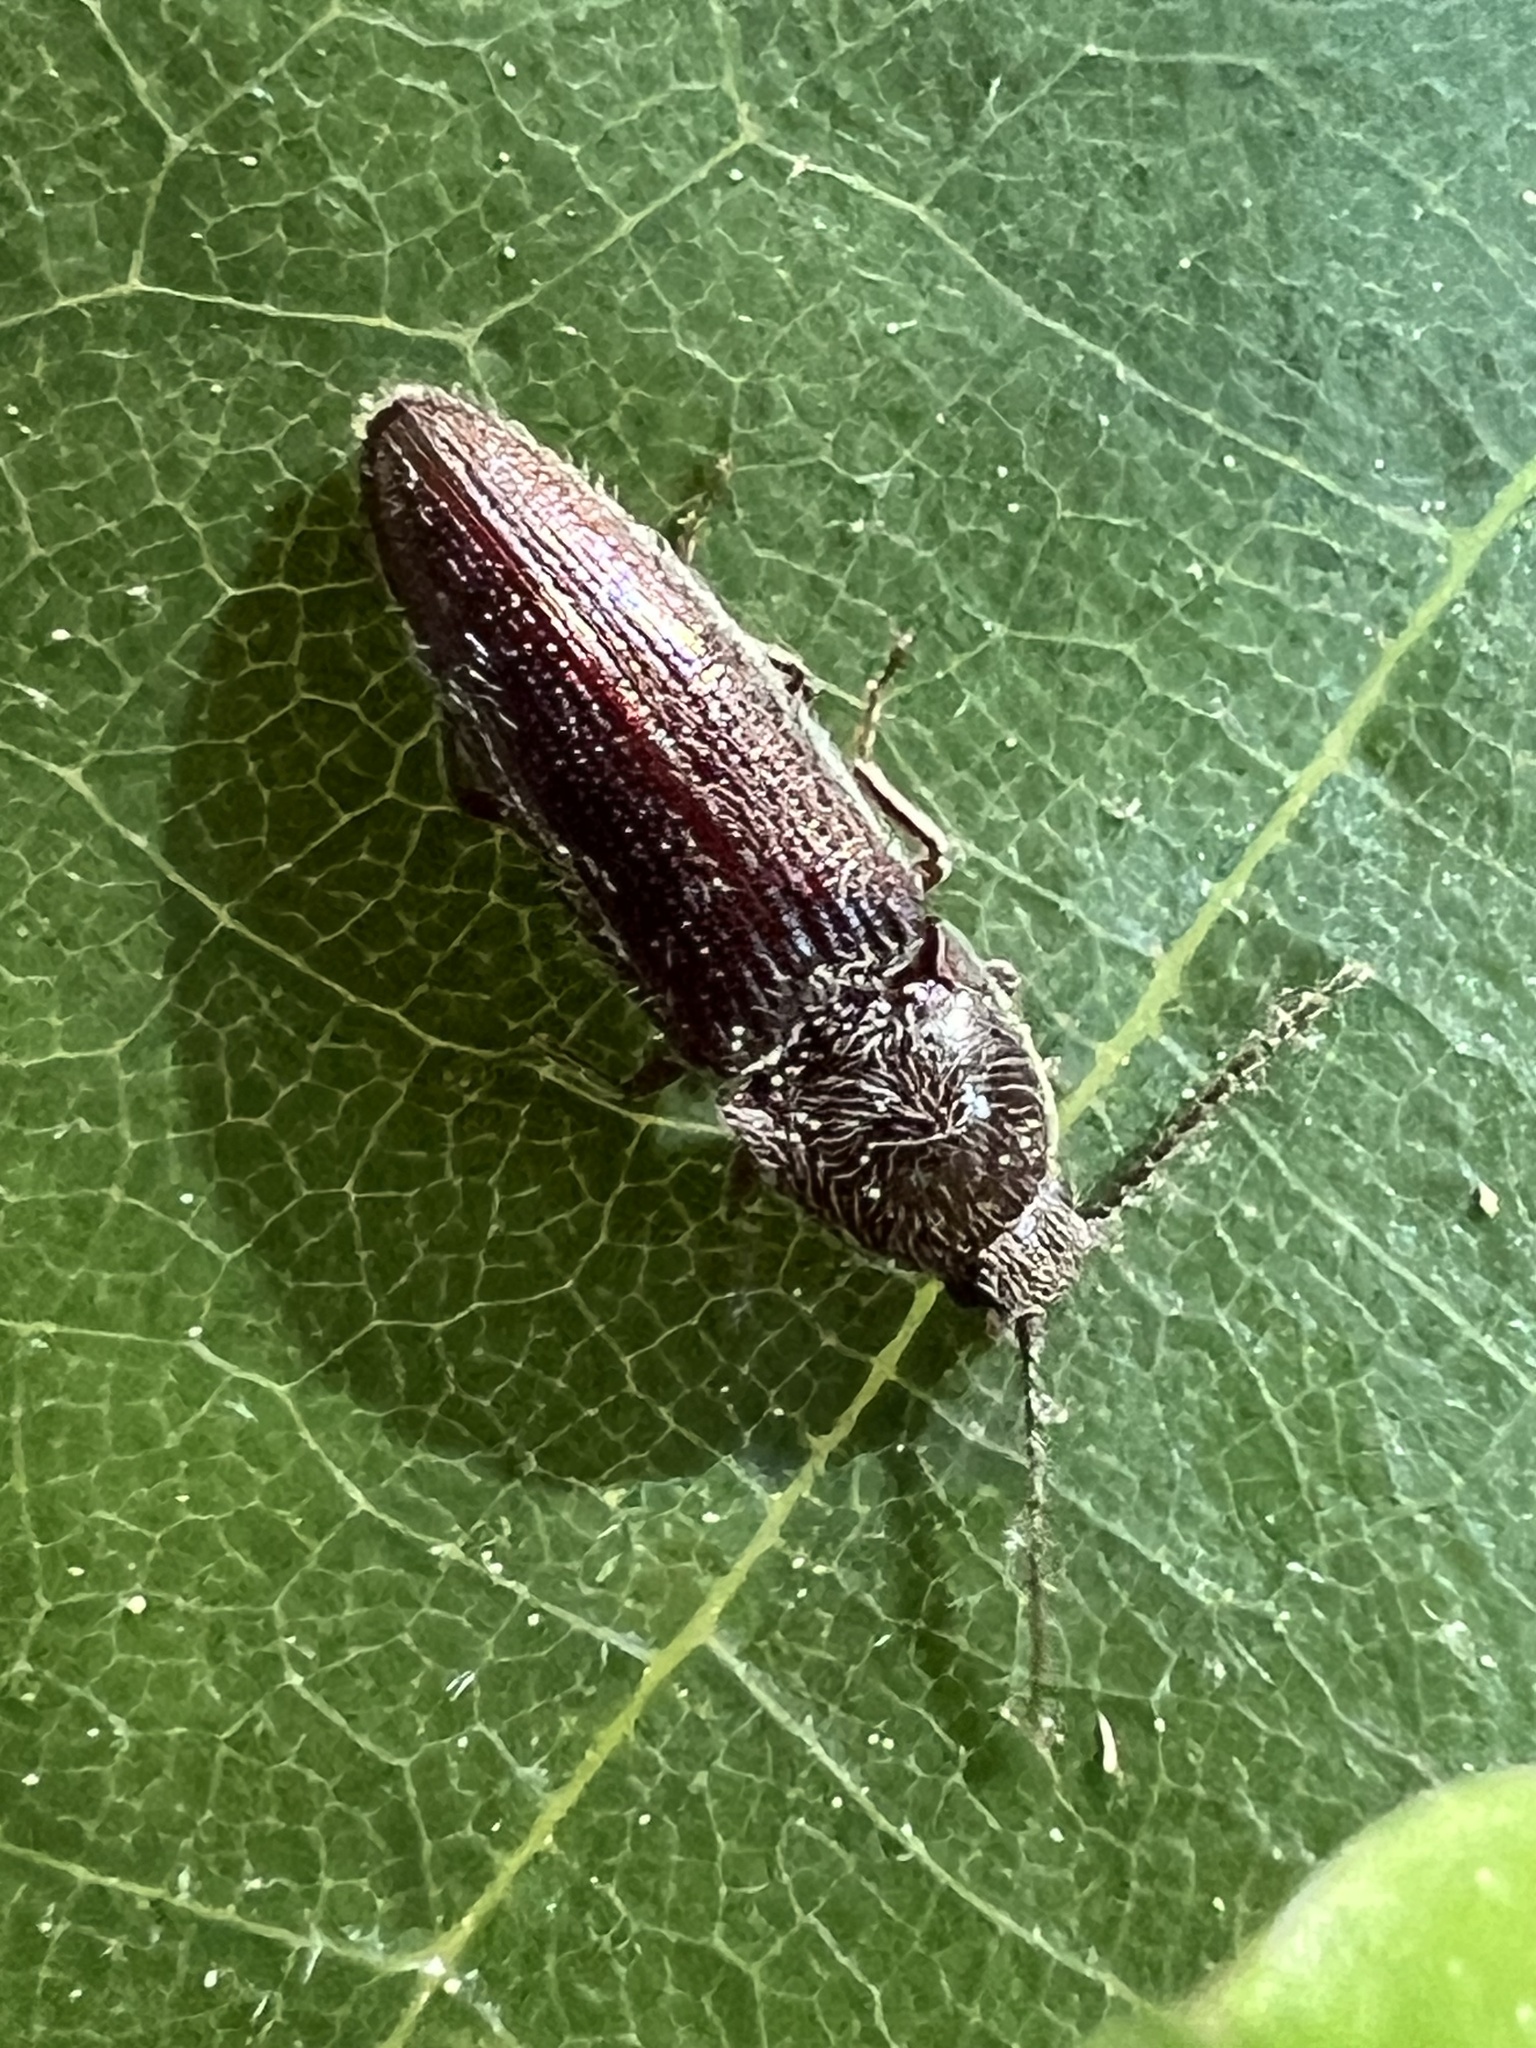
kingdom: Animalia
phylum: Arthropoda
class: Insecta
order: Coleoptera
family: Elateridae
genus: Melanotus
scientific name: Melanotus americanus
